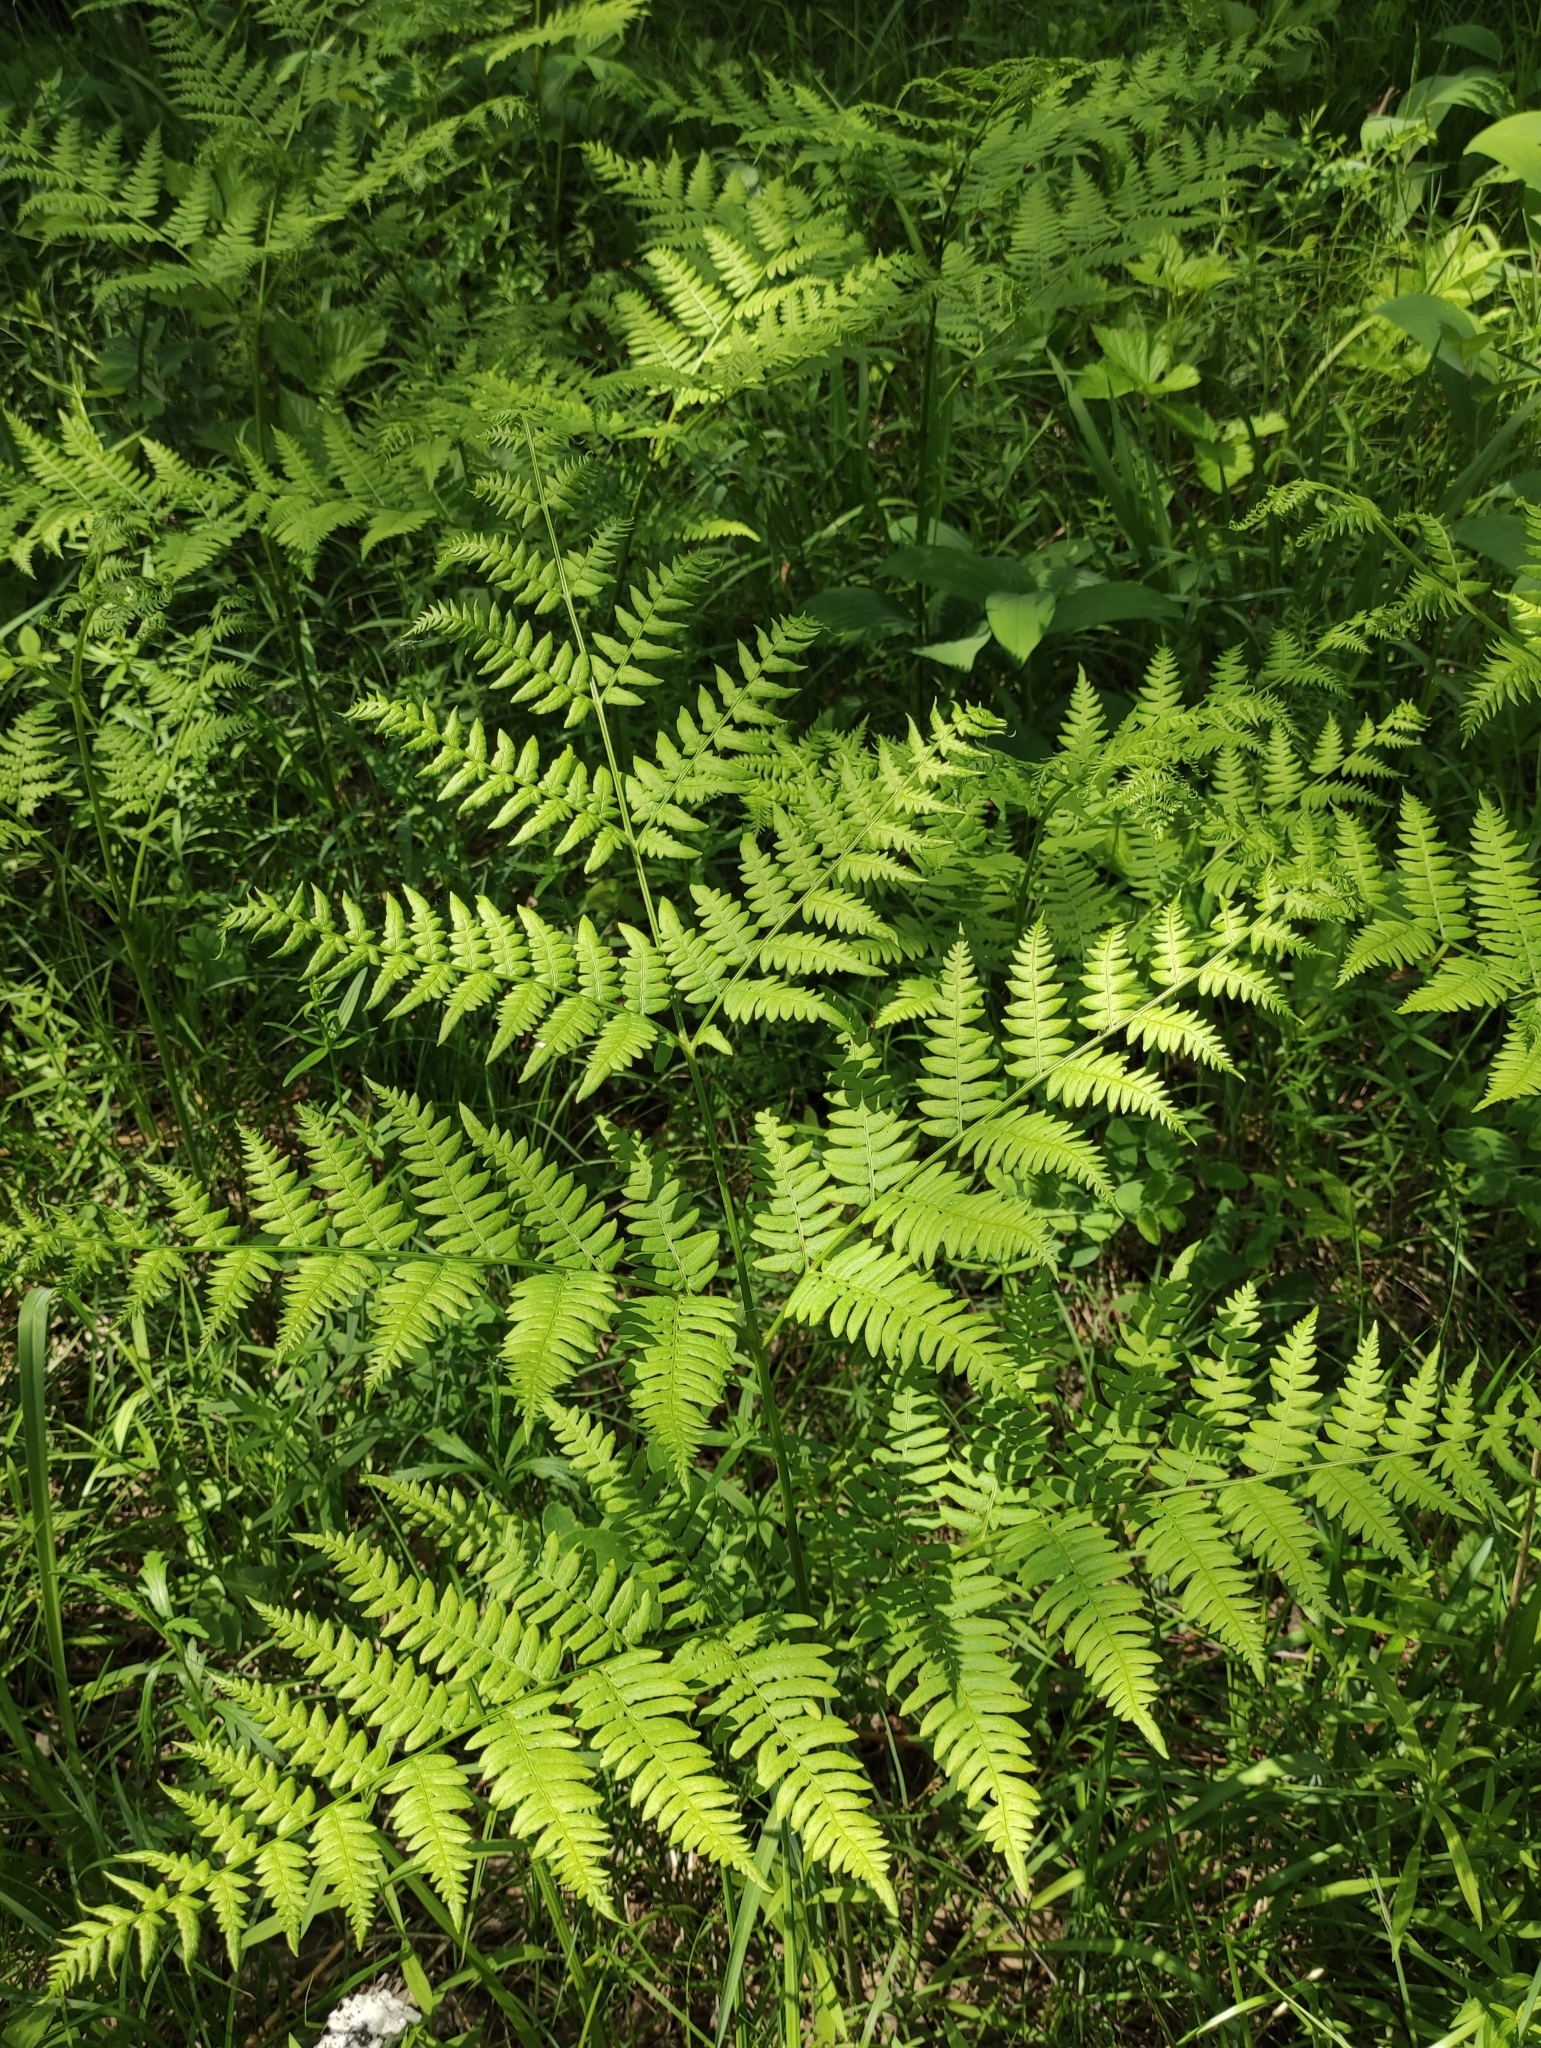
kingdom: Plantae
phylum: Tracheophyta
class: Polypodiopsida
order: Polypodiales
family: Dennstaedtiaceae
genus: Pteridium
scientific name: Pteridium aquilinum
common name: Bracken
